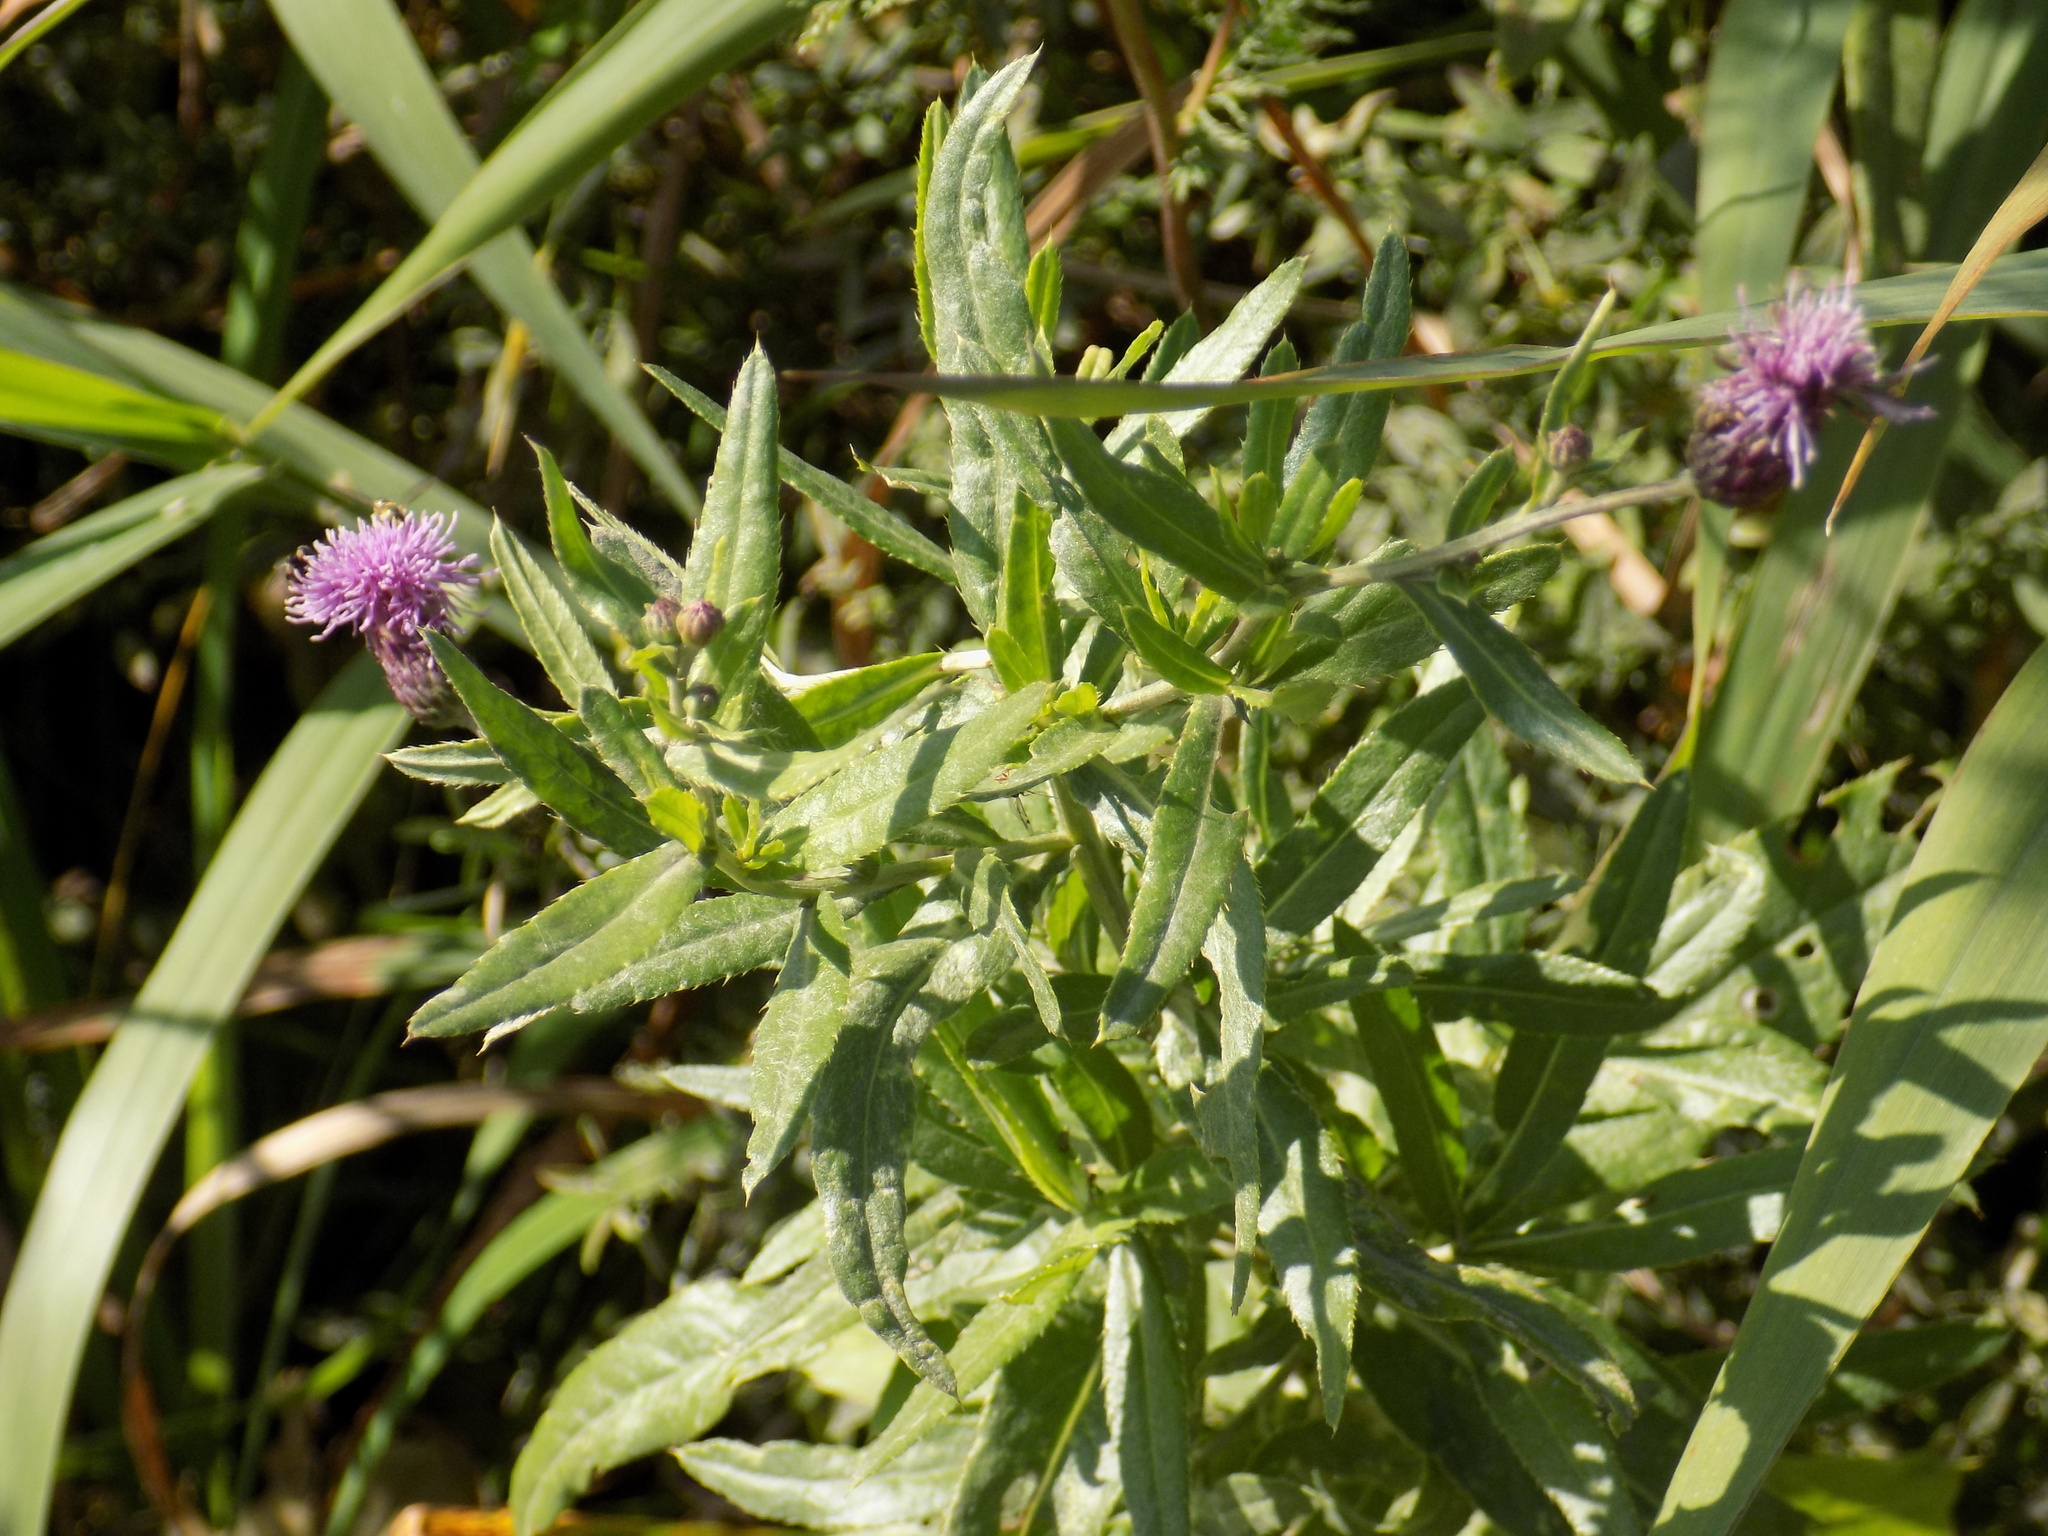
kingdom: Plantae
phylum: Tracheophyta
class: Magnoliopsida
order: Asterales
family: Asteraceae
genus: Cirsium
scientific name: Cirsium arvense
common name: Creeping thistle
